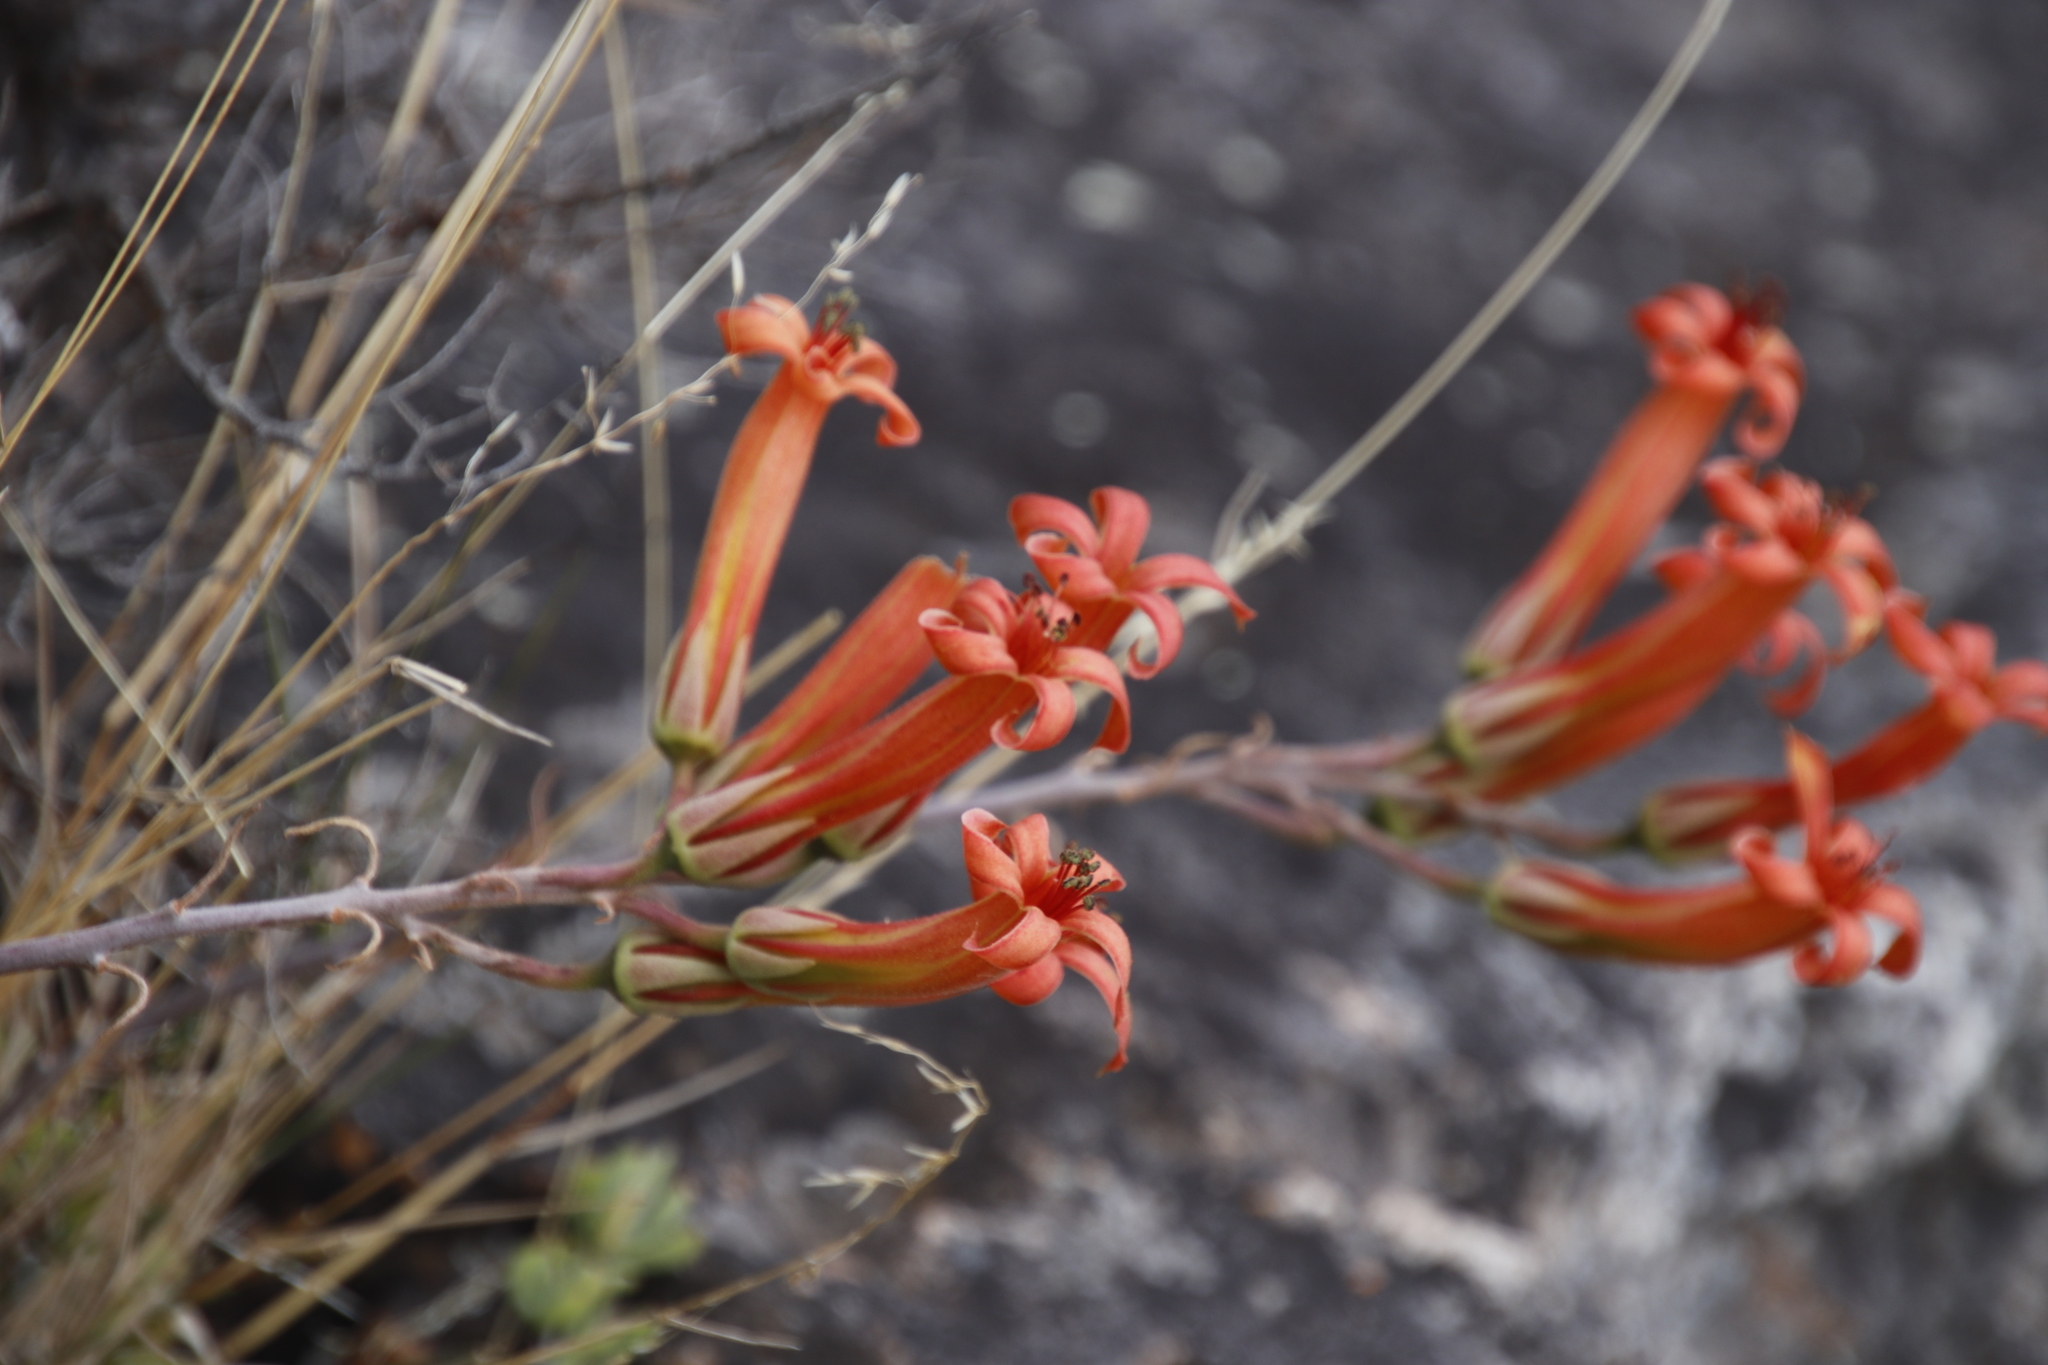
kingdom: Plantae
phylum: Tracheophyta
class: Magnoliopsida
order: Saxifragales
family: Crassulaceae
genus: Tylecodon
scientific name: Tylecodon grandiflorus
